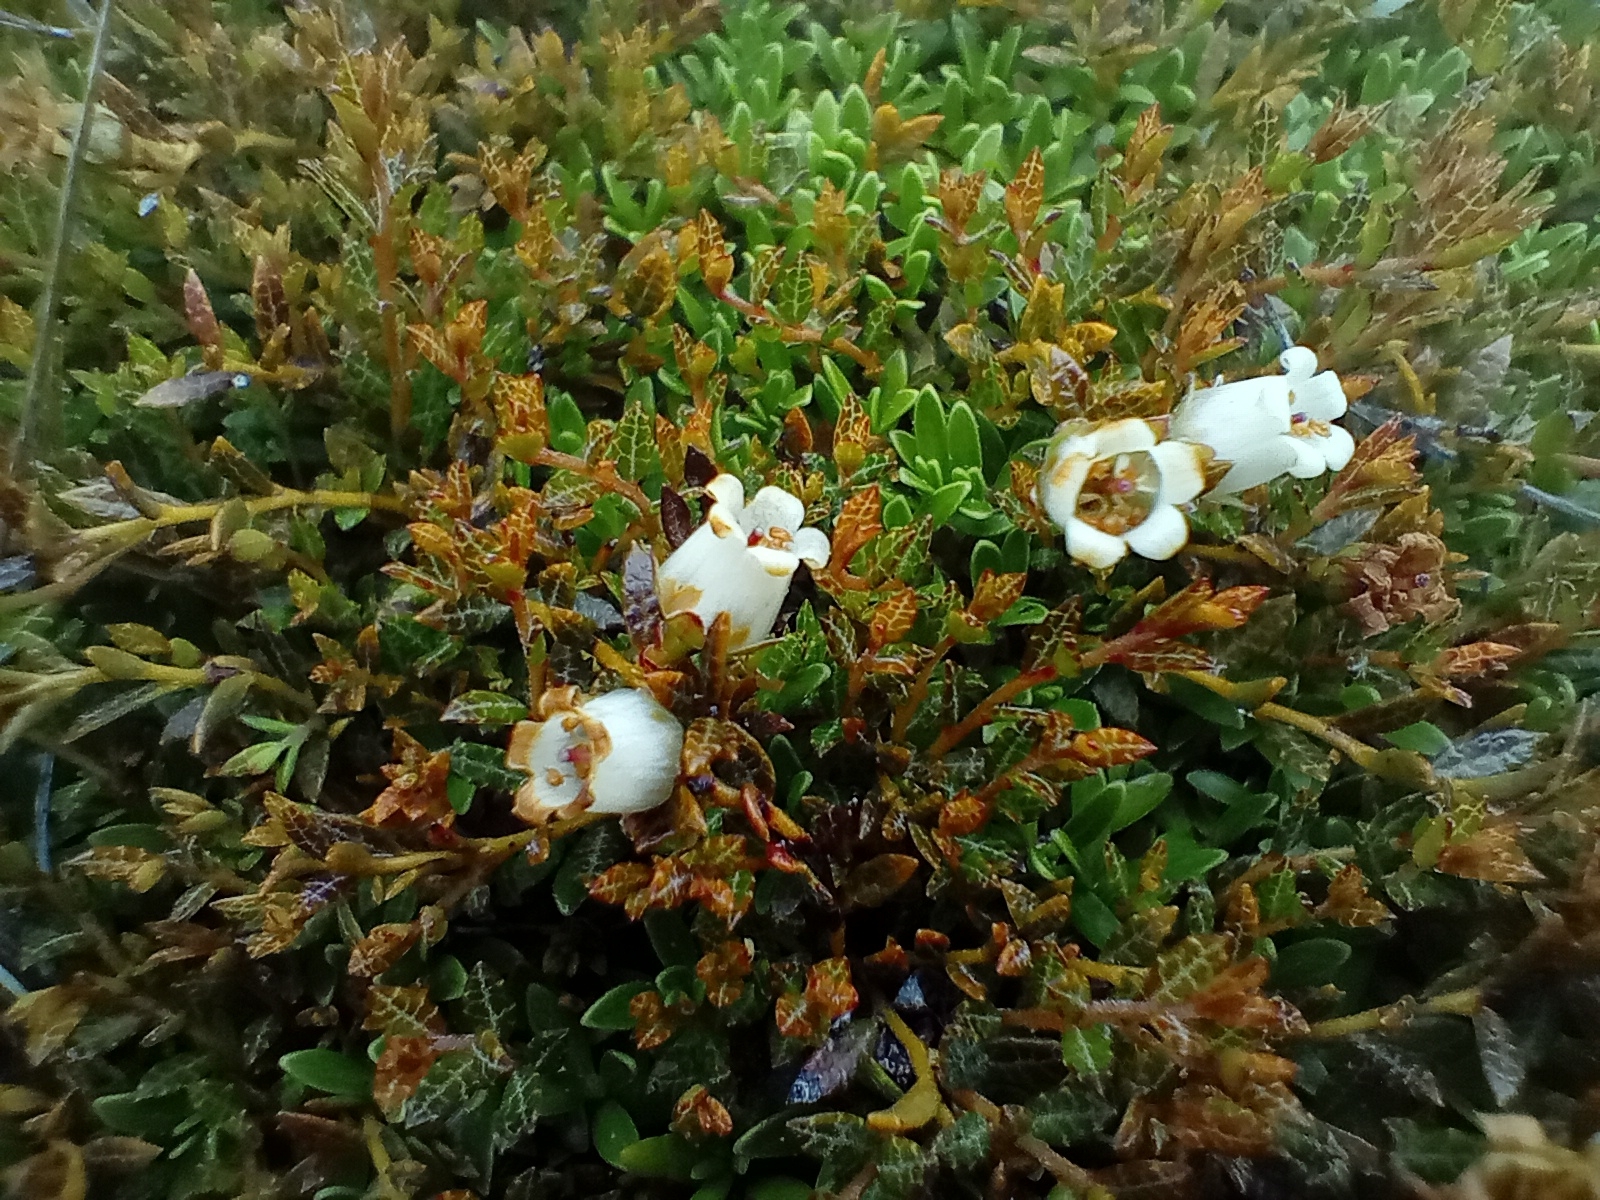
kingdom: Plantae
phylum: Tracheophyta
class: Magnoliopsida
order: Ericales
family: Ericaceae
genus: Gaultheria
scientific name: Gaultheria parvula
